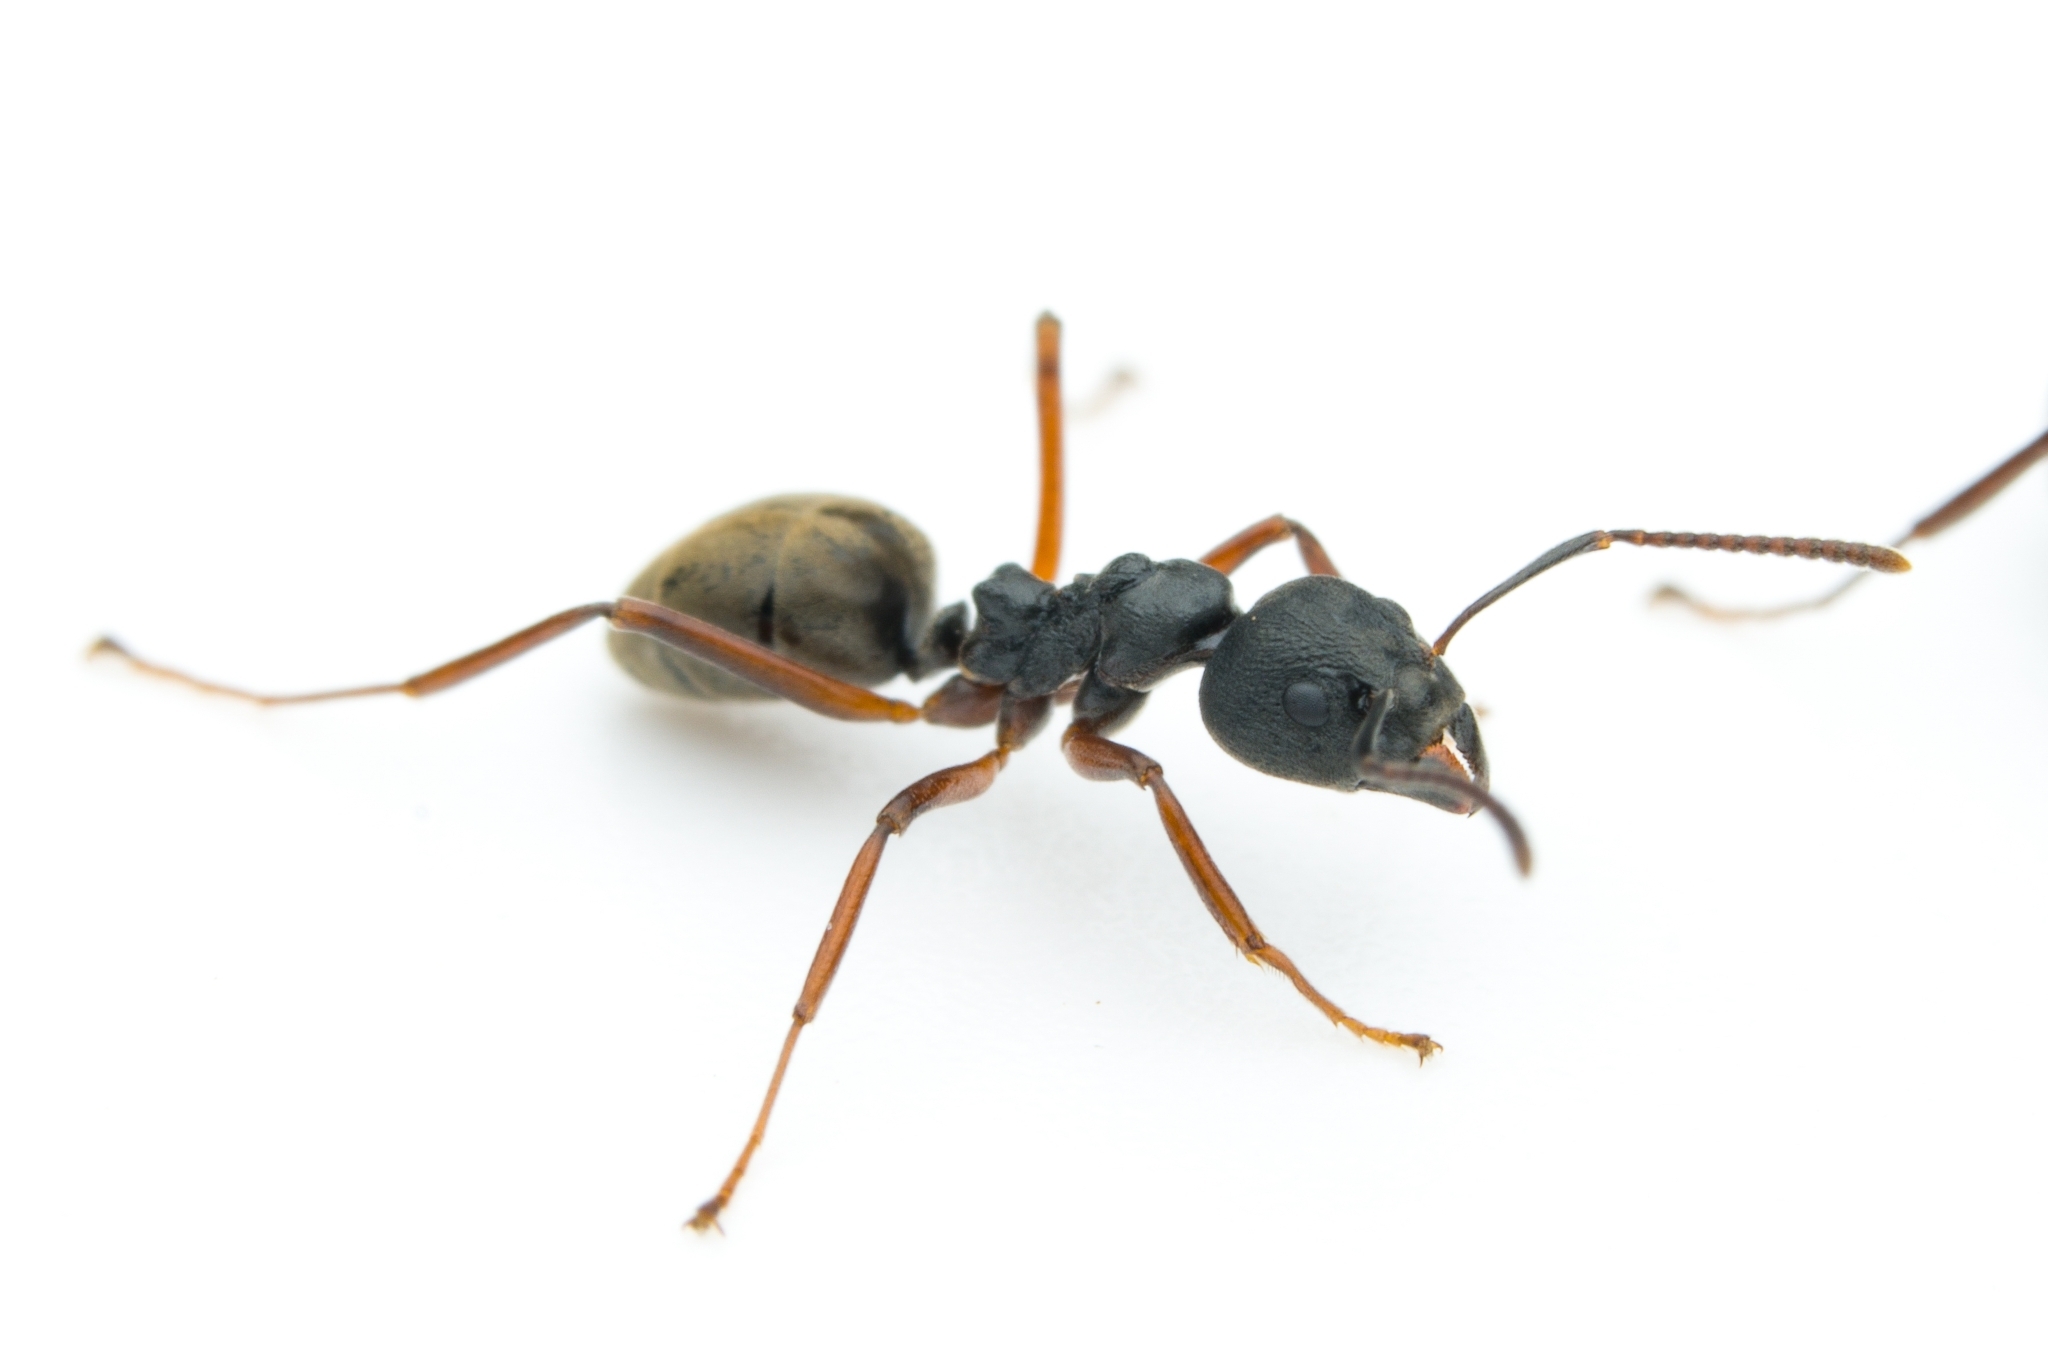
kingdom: Animalia
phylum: Arthropoda
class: Insecta
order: Hymenoptera
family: Formicidae
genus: Dolichoderus
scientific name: Dolichoderus
